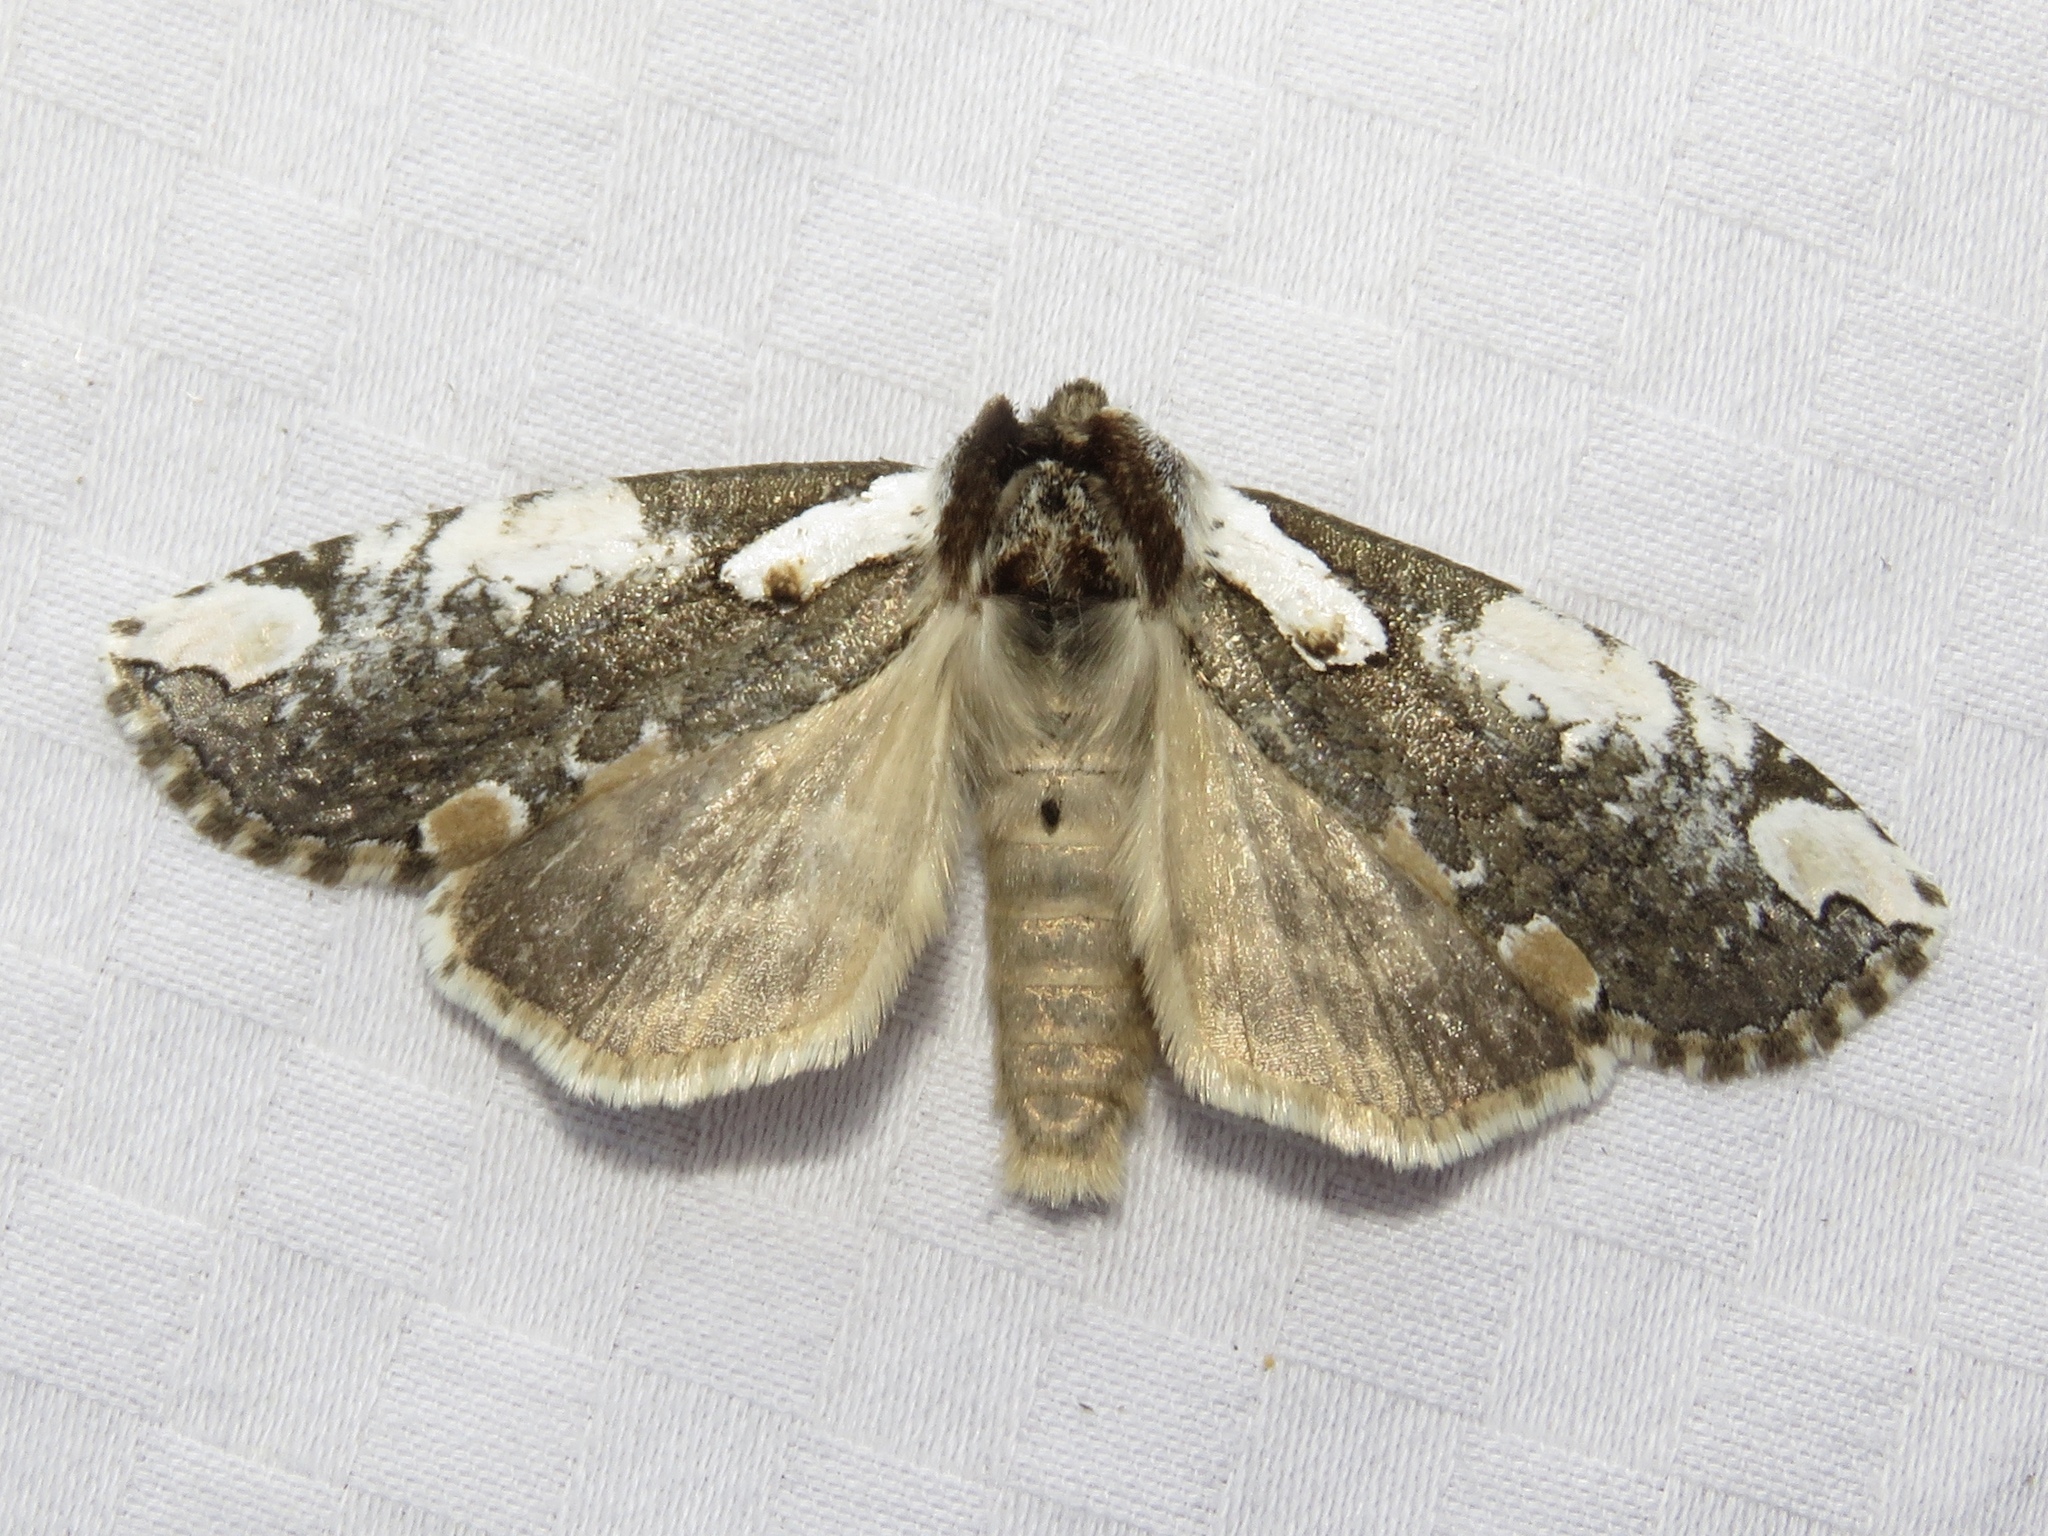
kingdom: Animalia
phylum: Arthropoda
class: Insecta
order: Lepidoptera
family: Drepanidae
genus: Euthyatira
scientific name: Euthyatira pudens
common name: Dogwood thyatirid moth
